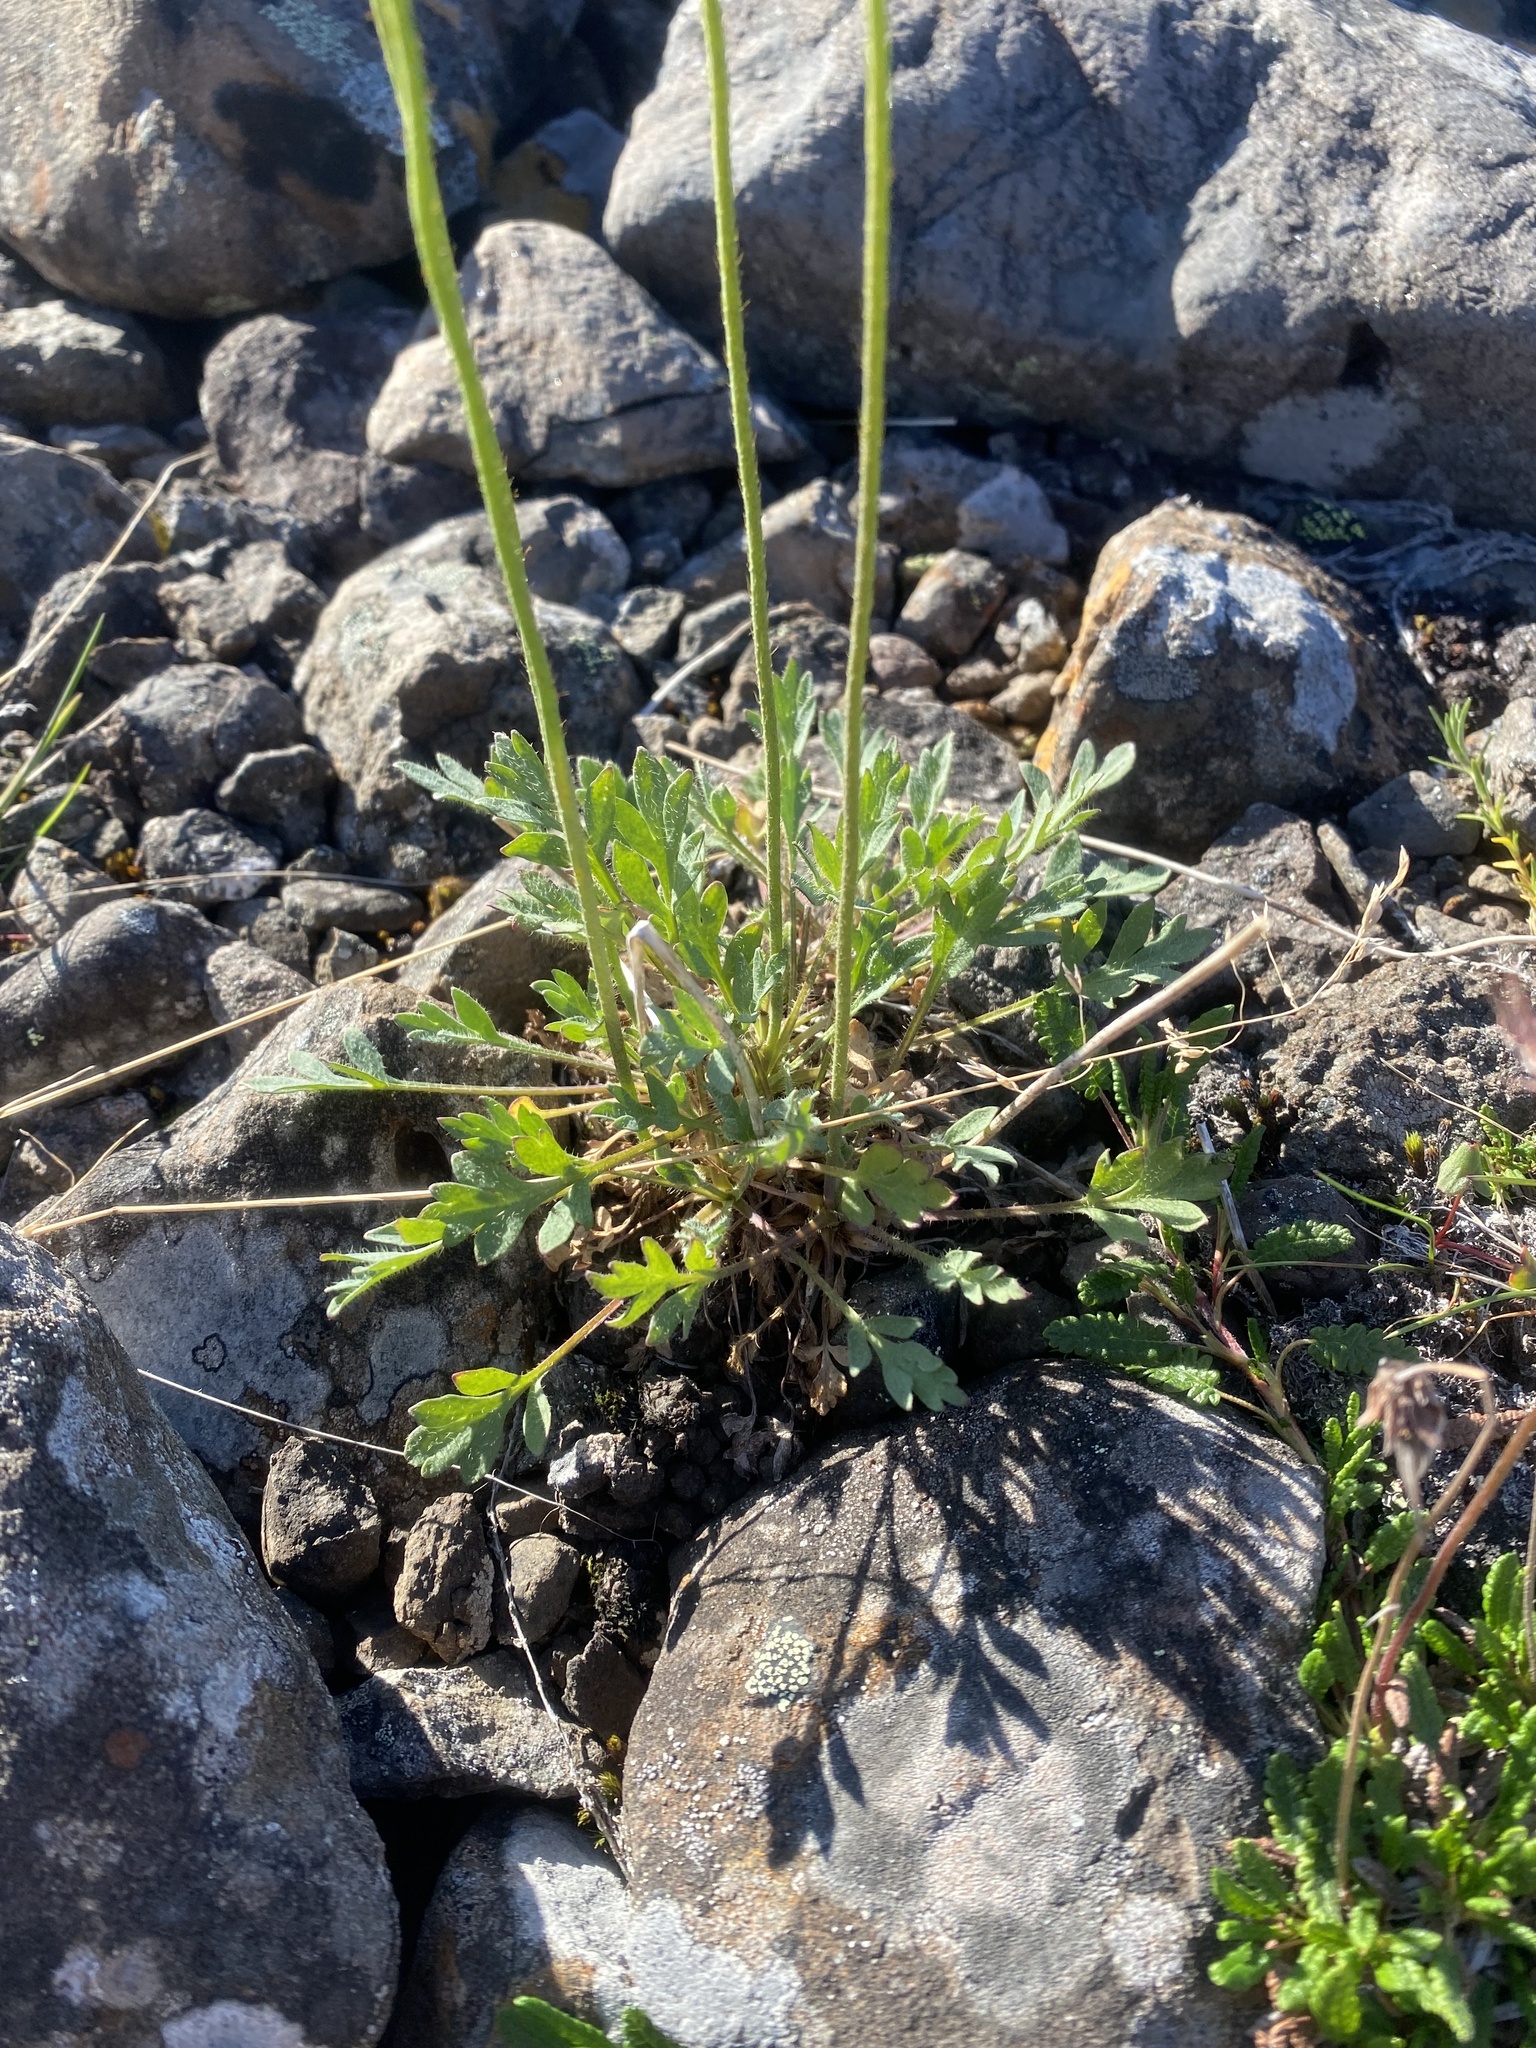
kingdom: Plantae
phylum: Tracheophyta
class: Magnoliopsida
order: Ranunculales
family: Papaveraceae
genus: Papaver
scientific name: Papaver variegatum
